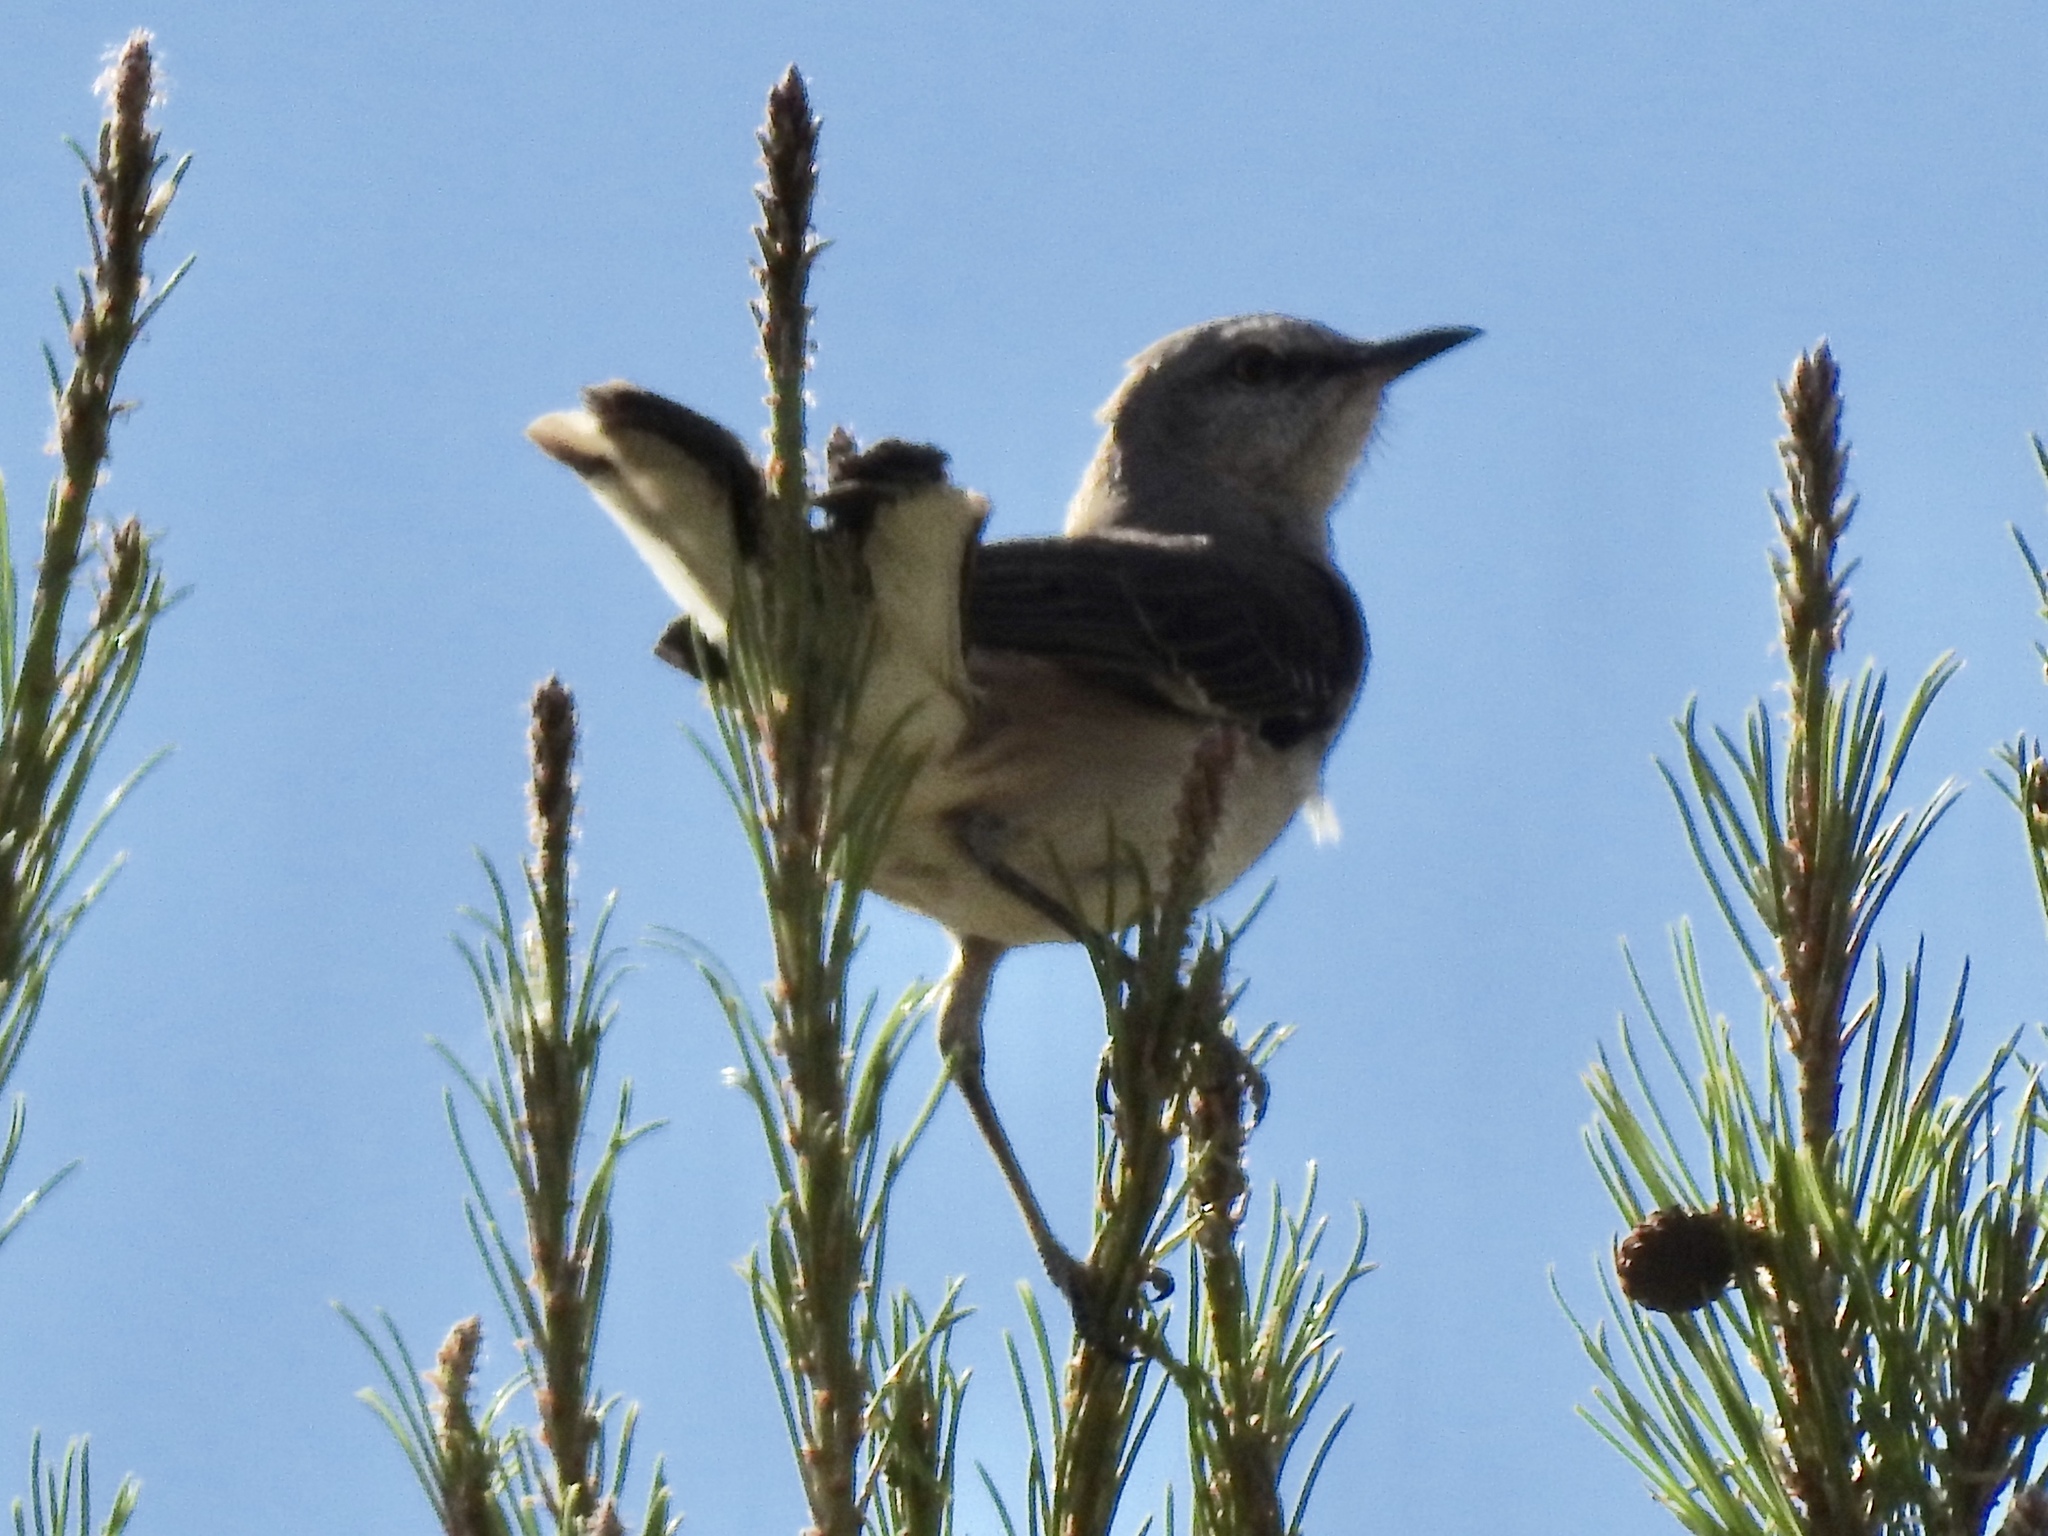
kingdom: Animalia
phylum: Chordata
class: Aves
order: Passeriformes
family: Mimidae
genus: Mimus
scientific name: Mimus polyglottos
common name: Northern mockingbird
